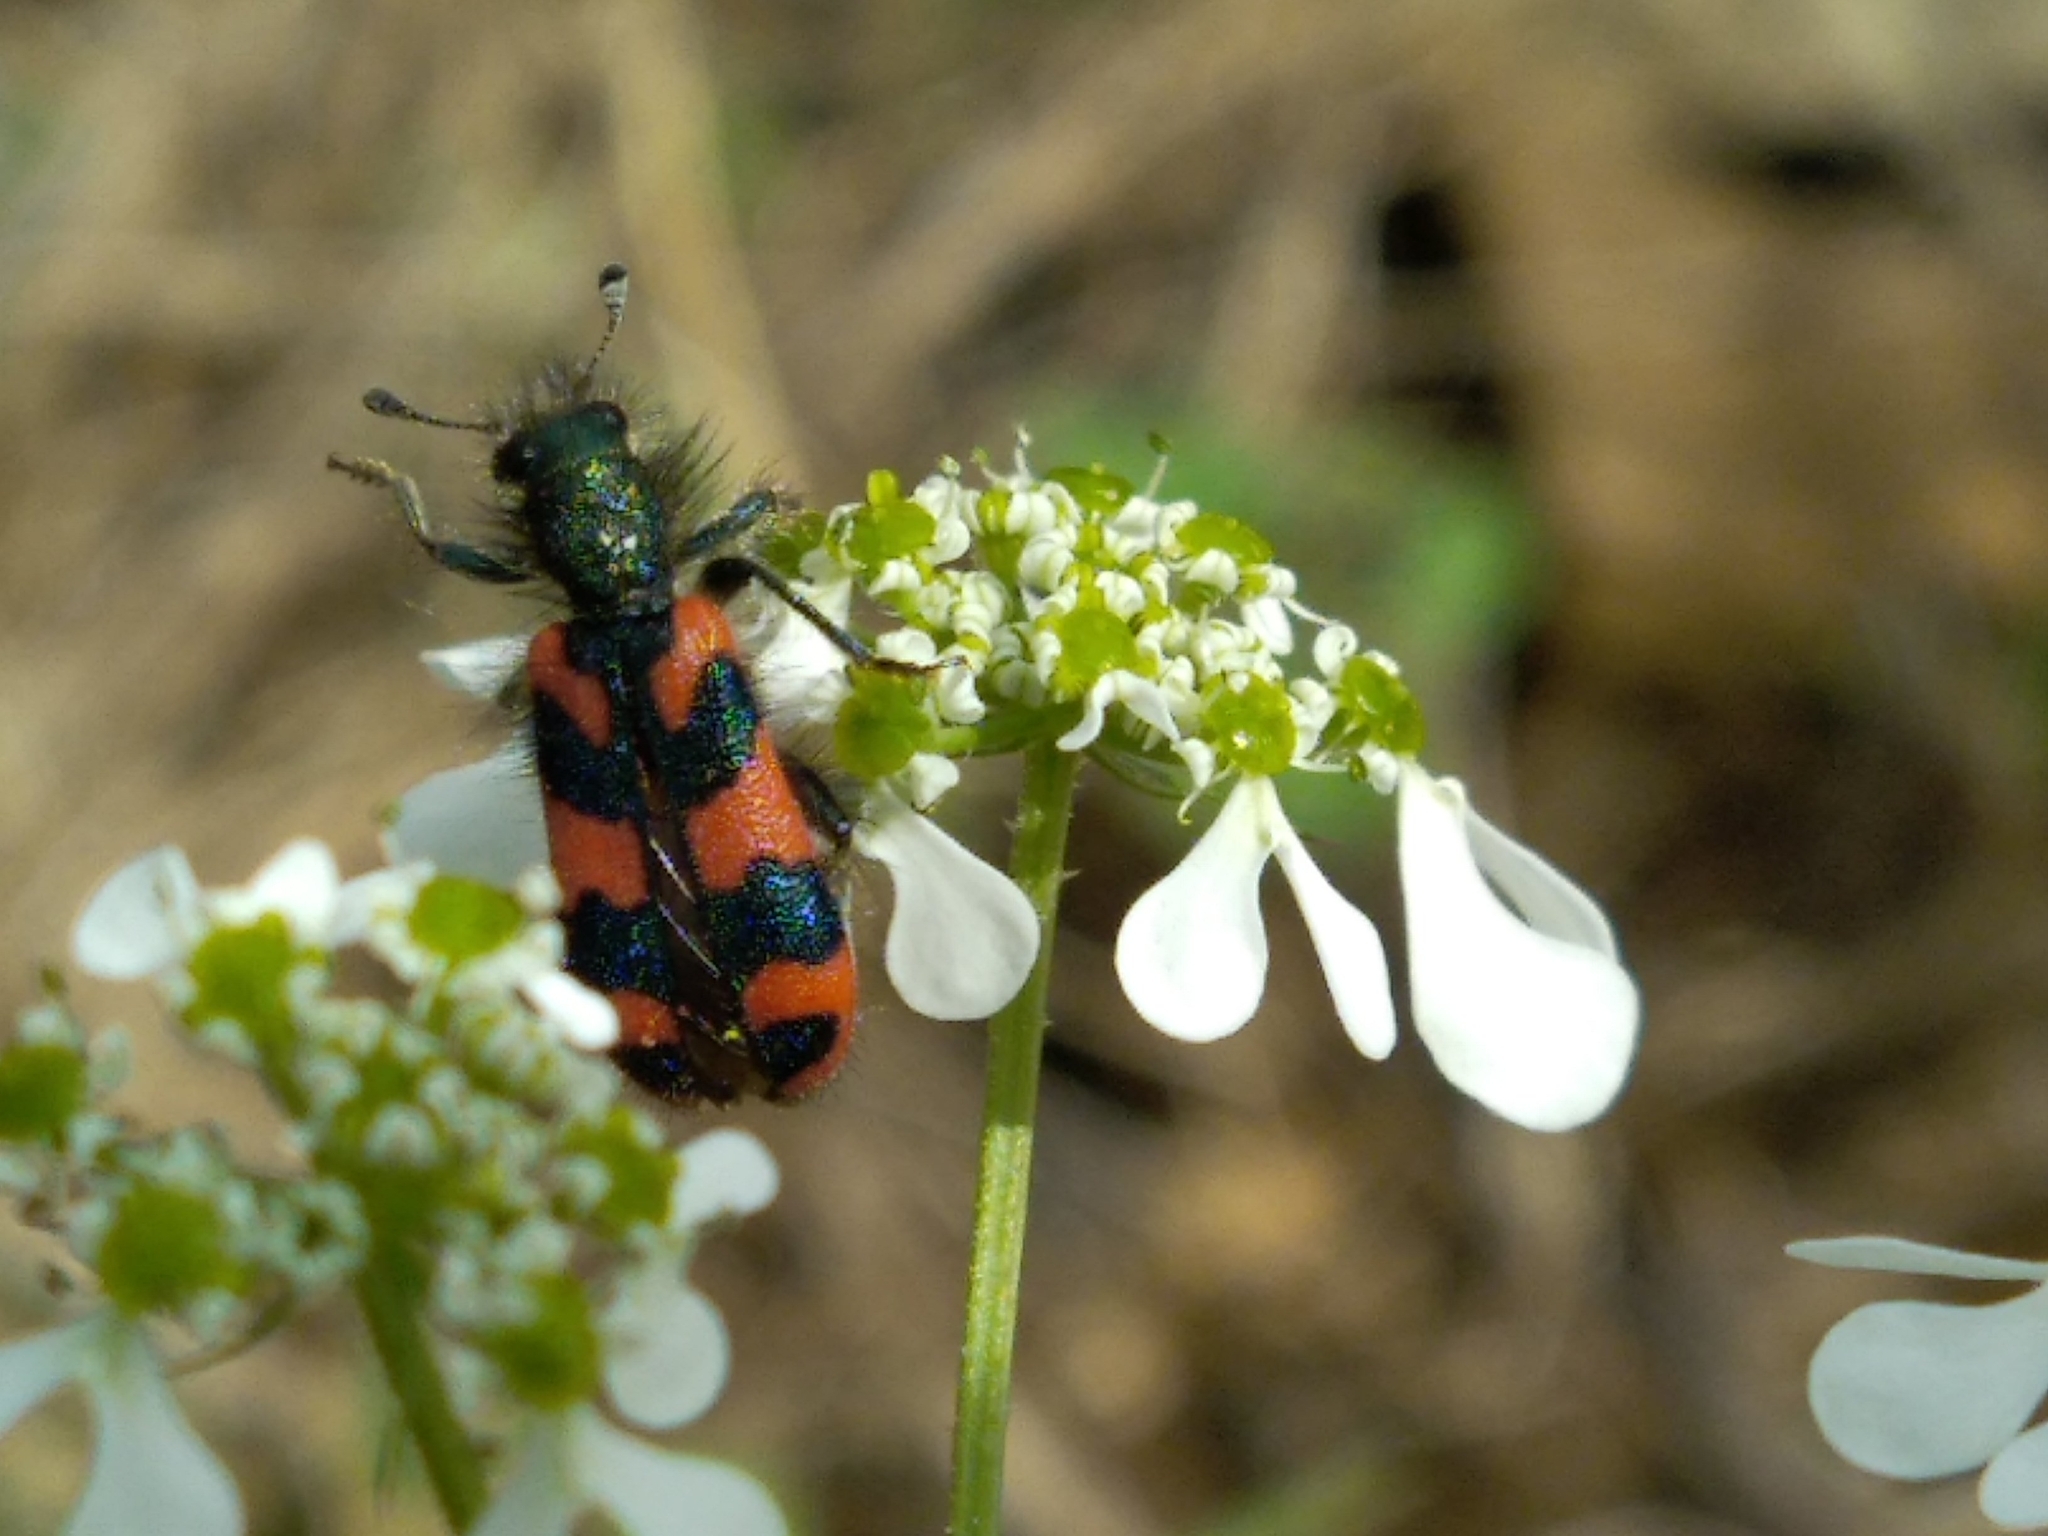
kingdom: Animalia
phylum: Arthropoda
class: Insecta
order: Coleoptera
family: Cleridae
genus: Trichodes
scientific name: Trichodes alvearius
